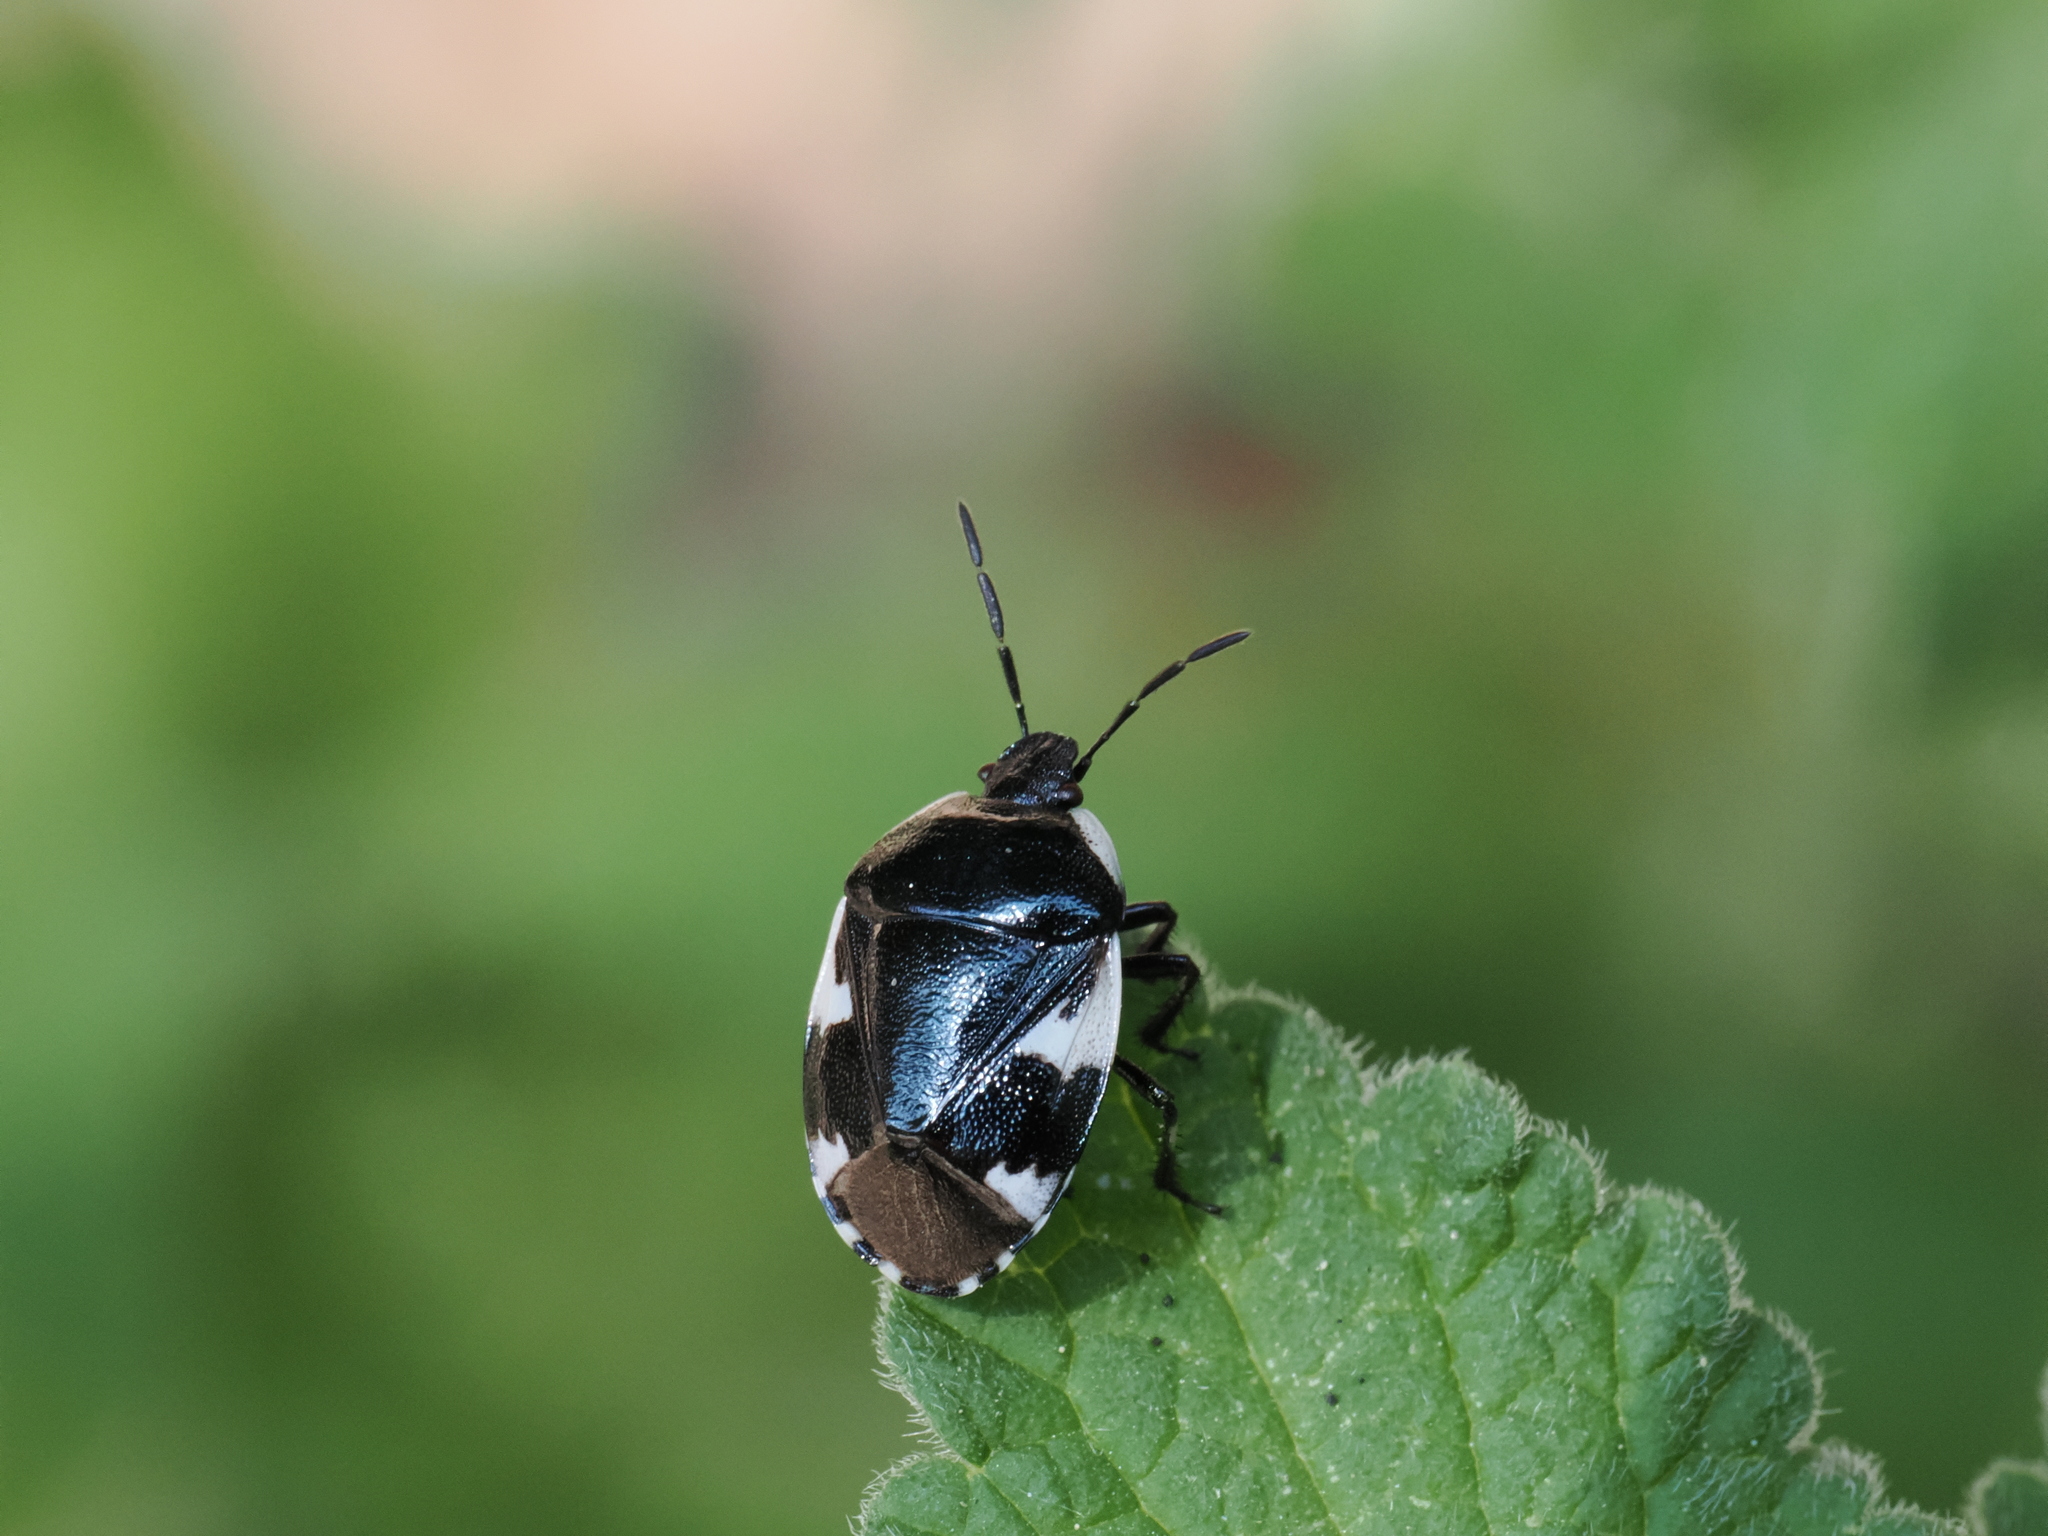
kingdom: Animalia
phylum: Arthropoda
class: Insecta
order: Hemiptera
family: Cydnidae
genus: Tritomegas
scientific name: Tritomegas sexmaculatus
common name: Rambur's pied shieldbug
